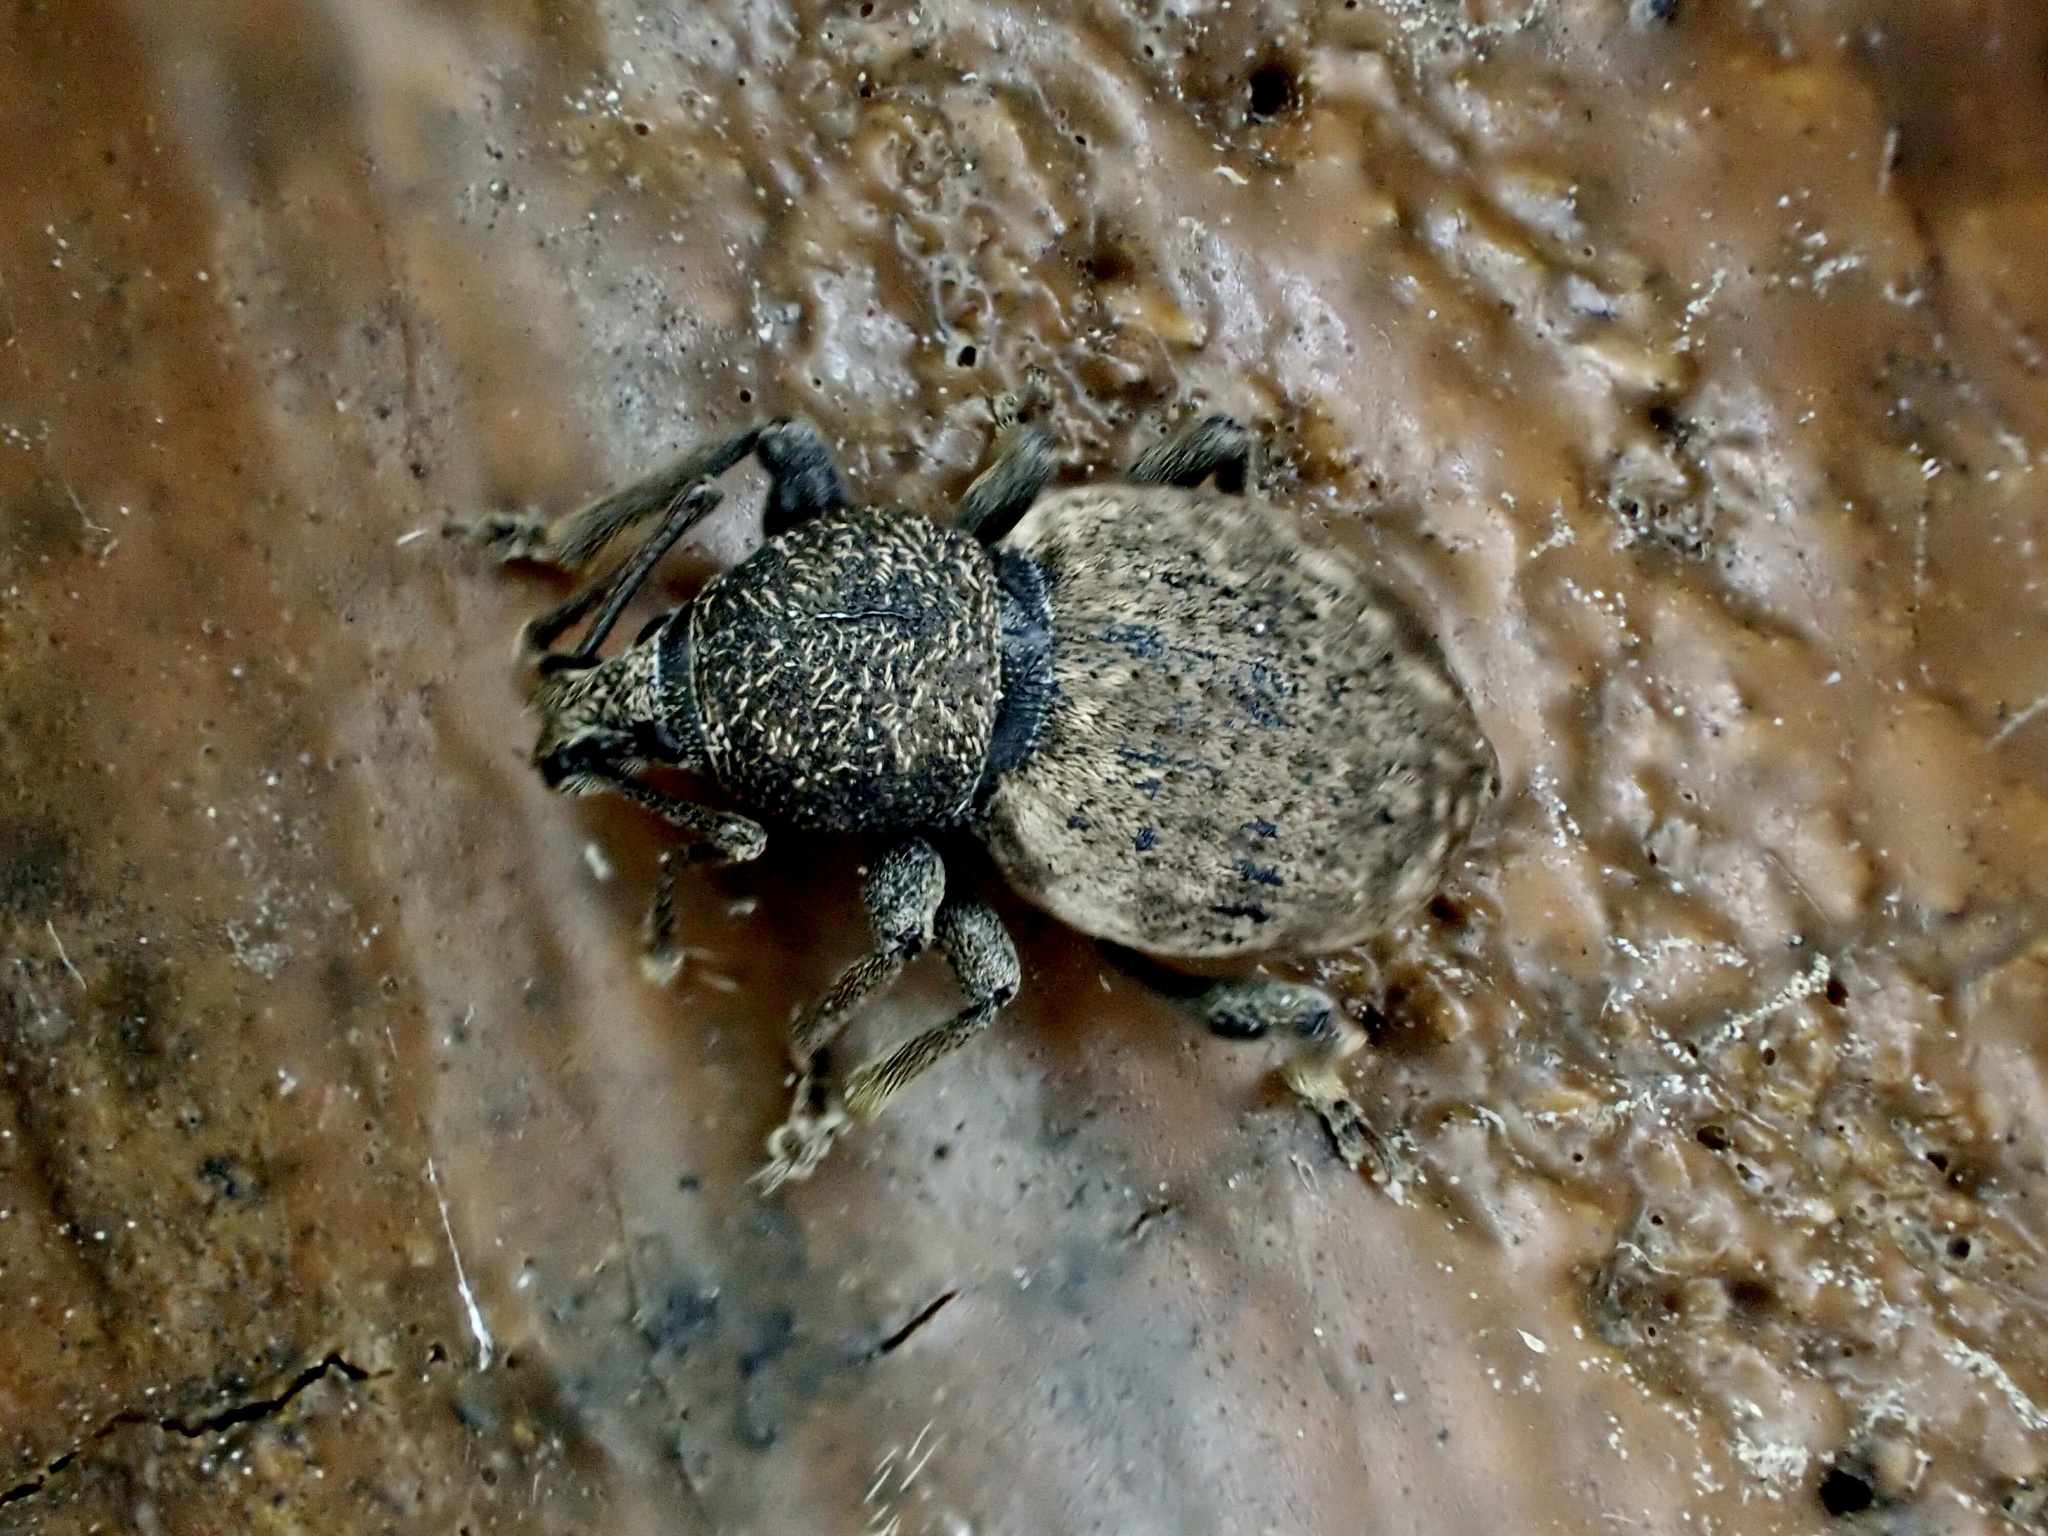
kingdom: Animalia
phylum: Arthropoda
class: Insecta
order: Coleoptera
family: Curculionidae
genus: Otiorhynchus
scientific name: Otiorhynchus raucus
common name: Weevil
